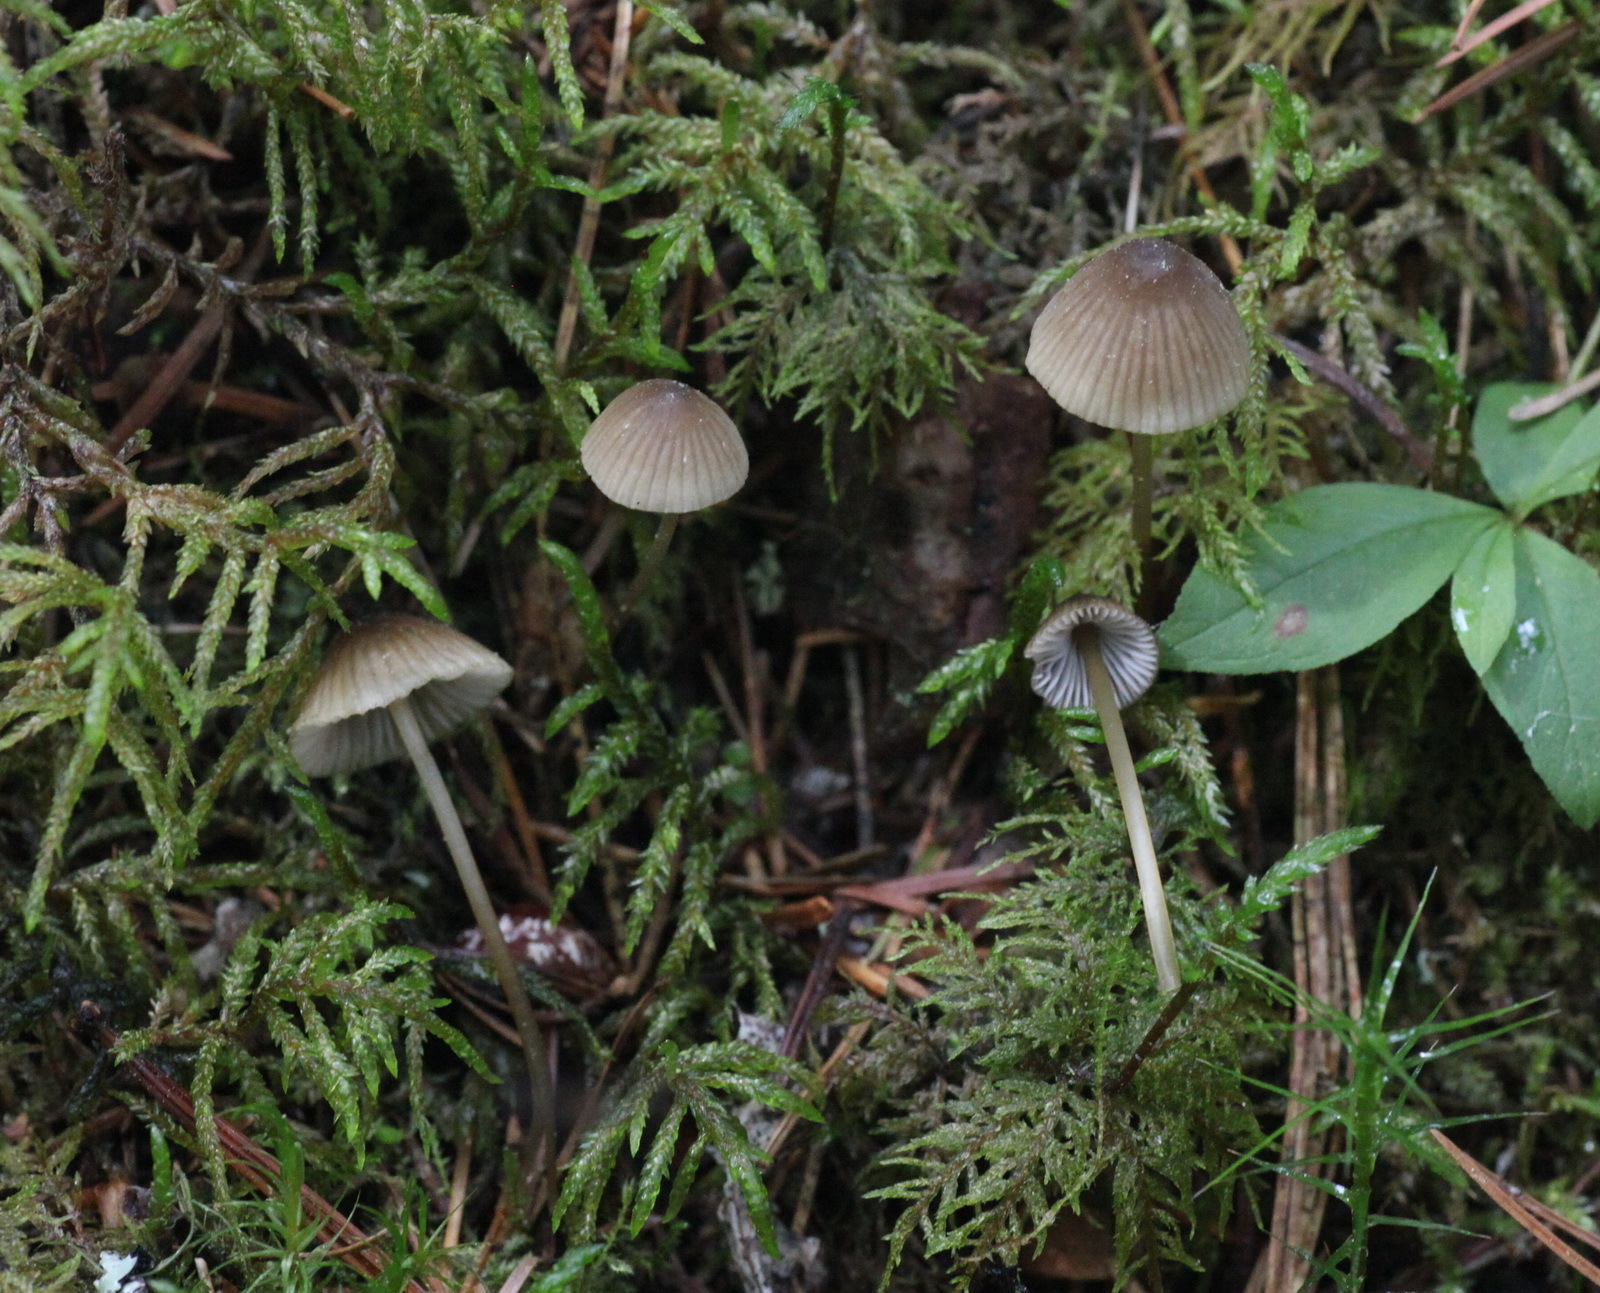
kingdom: Fungi
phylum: Basidiomycota
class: Agaricomycetes
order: Agaricales
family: Mycenaceae
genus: Mycena
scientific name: Mycena viridimarginata
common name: Olive edge bonnet
